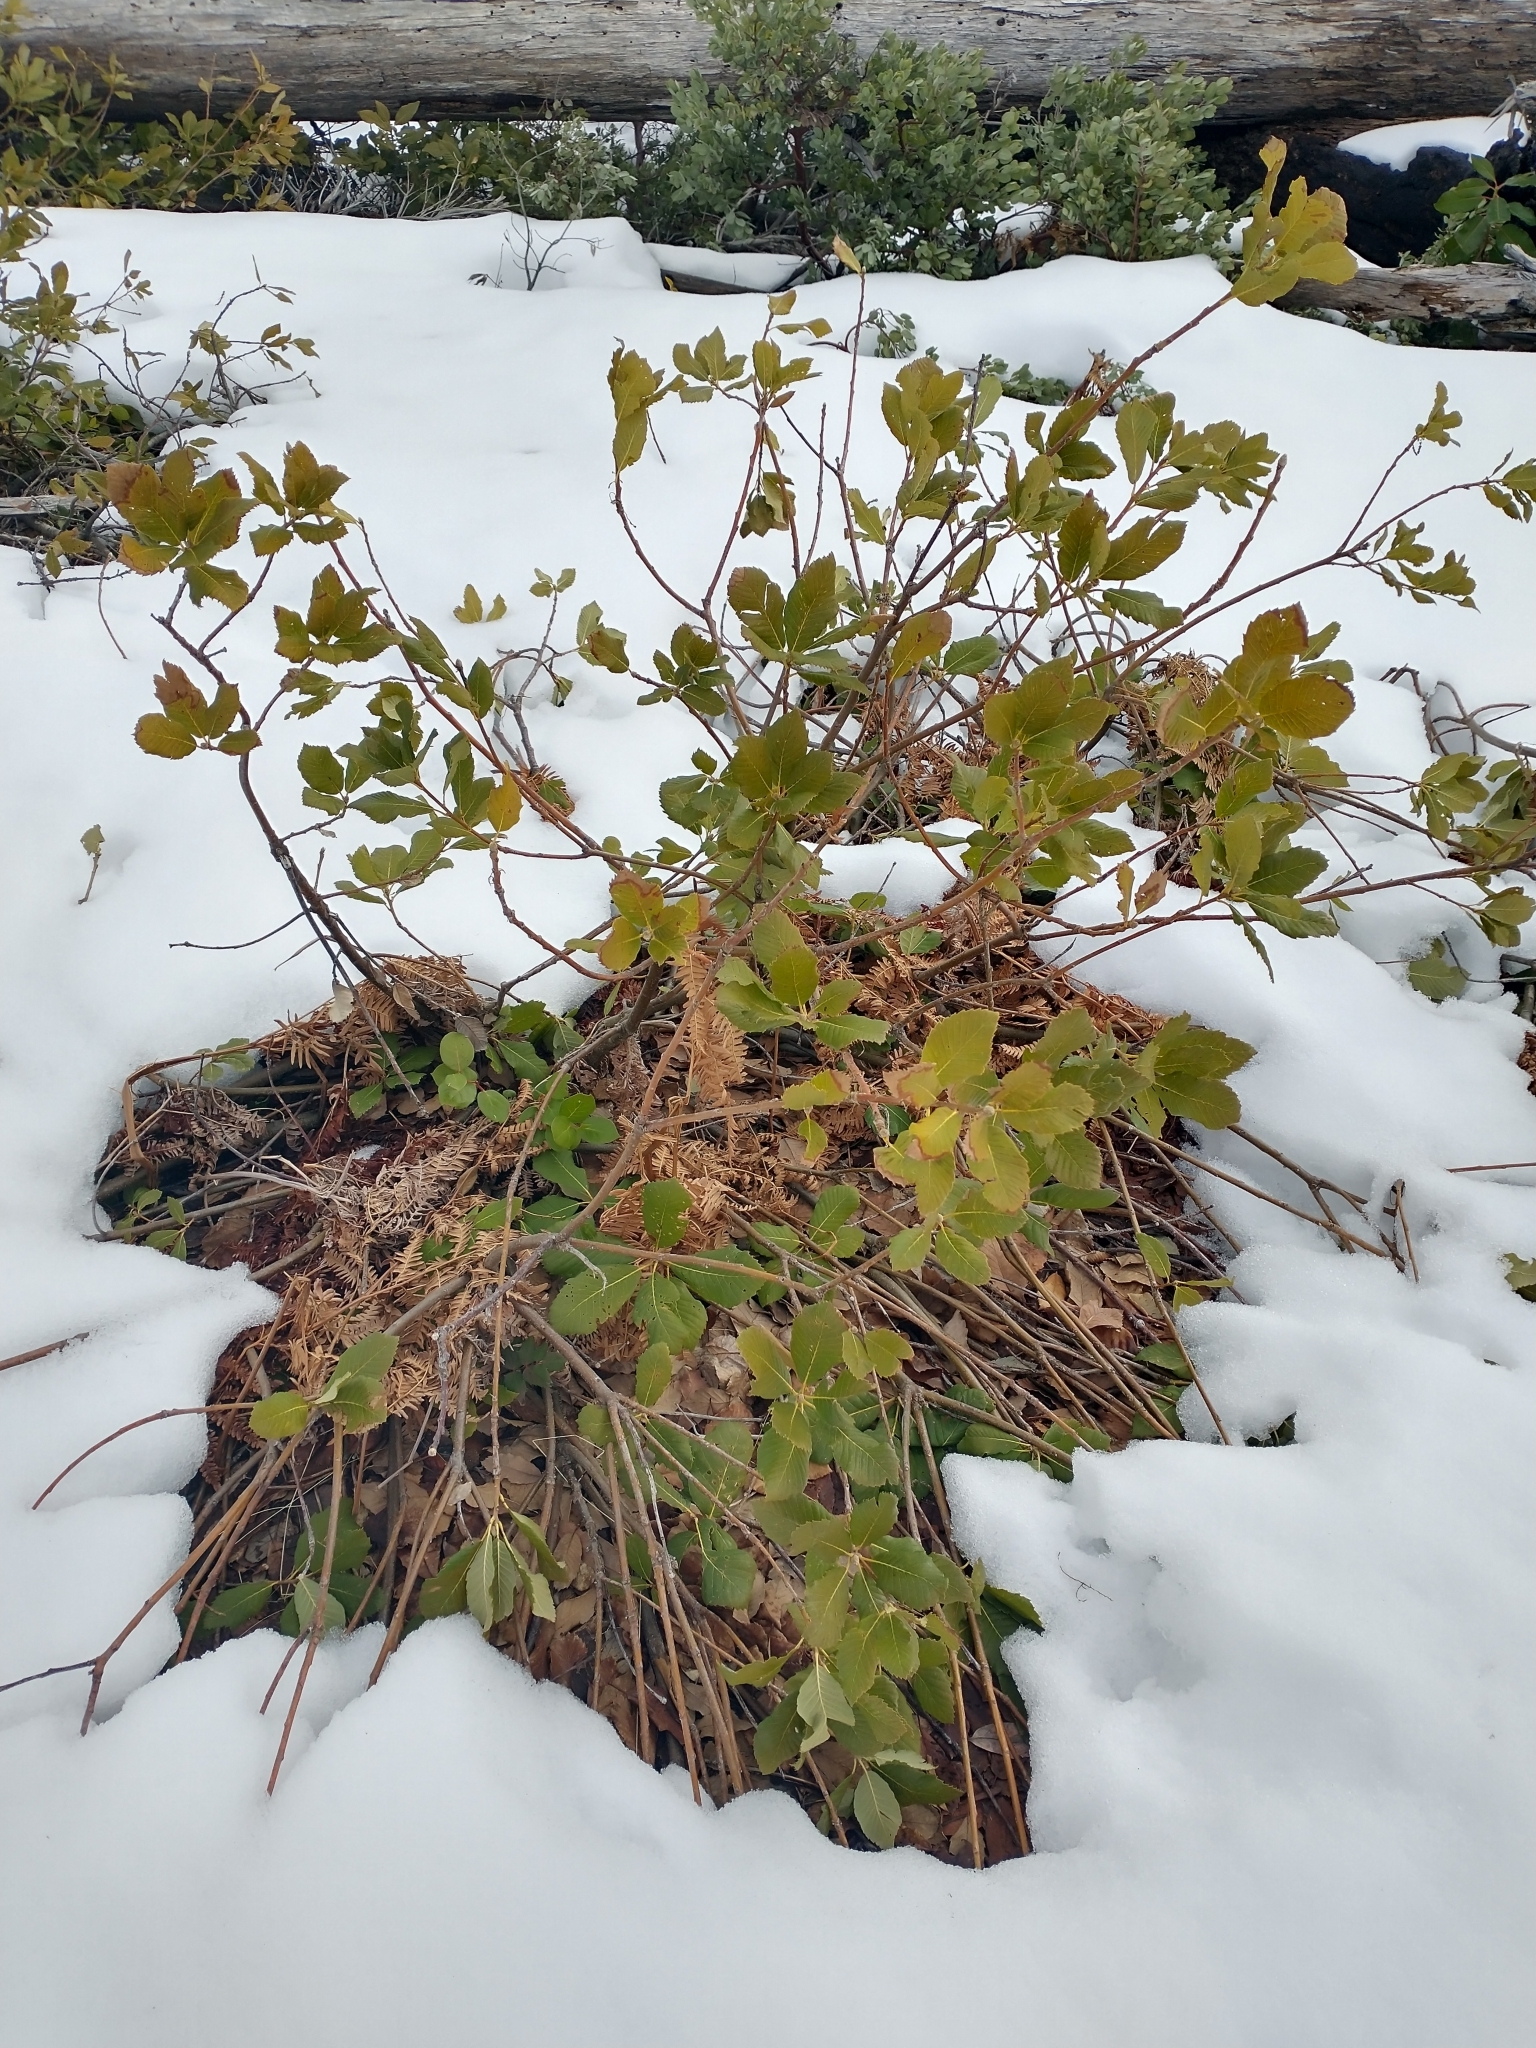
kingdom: Plantae
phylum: Tracheophyta
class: Magnoliopsida
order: Fagales
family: Fagaceae
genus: Quercus
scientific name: Quercus sadleriana
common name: Deer oak
